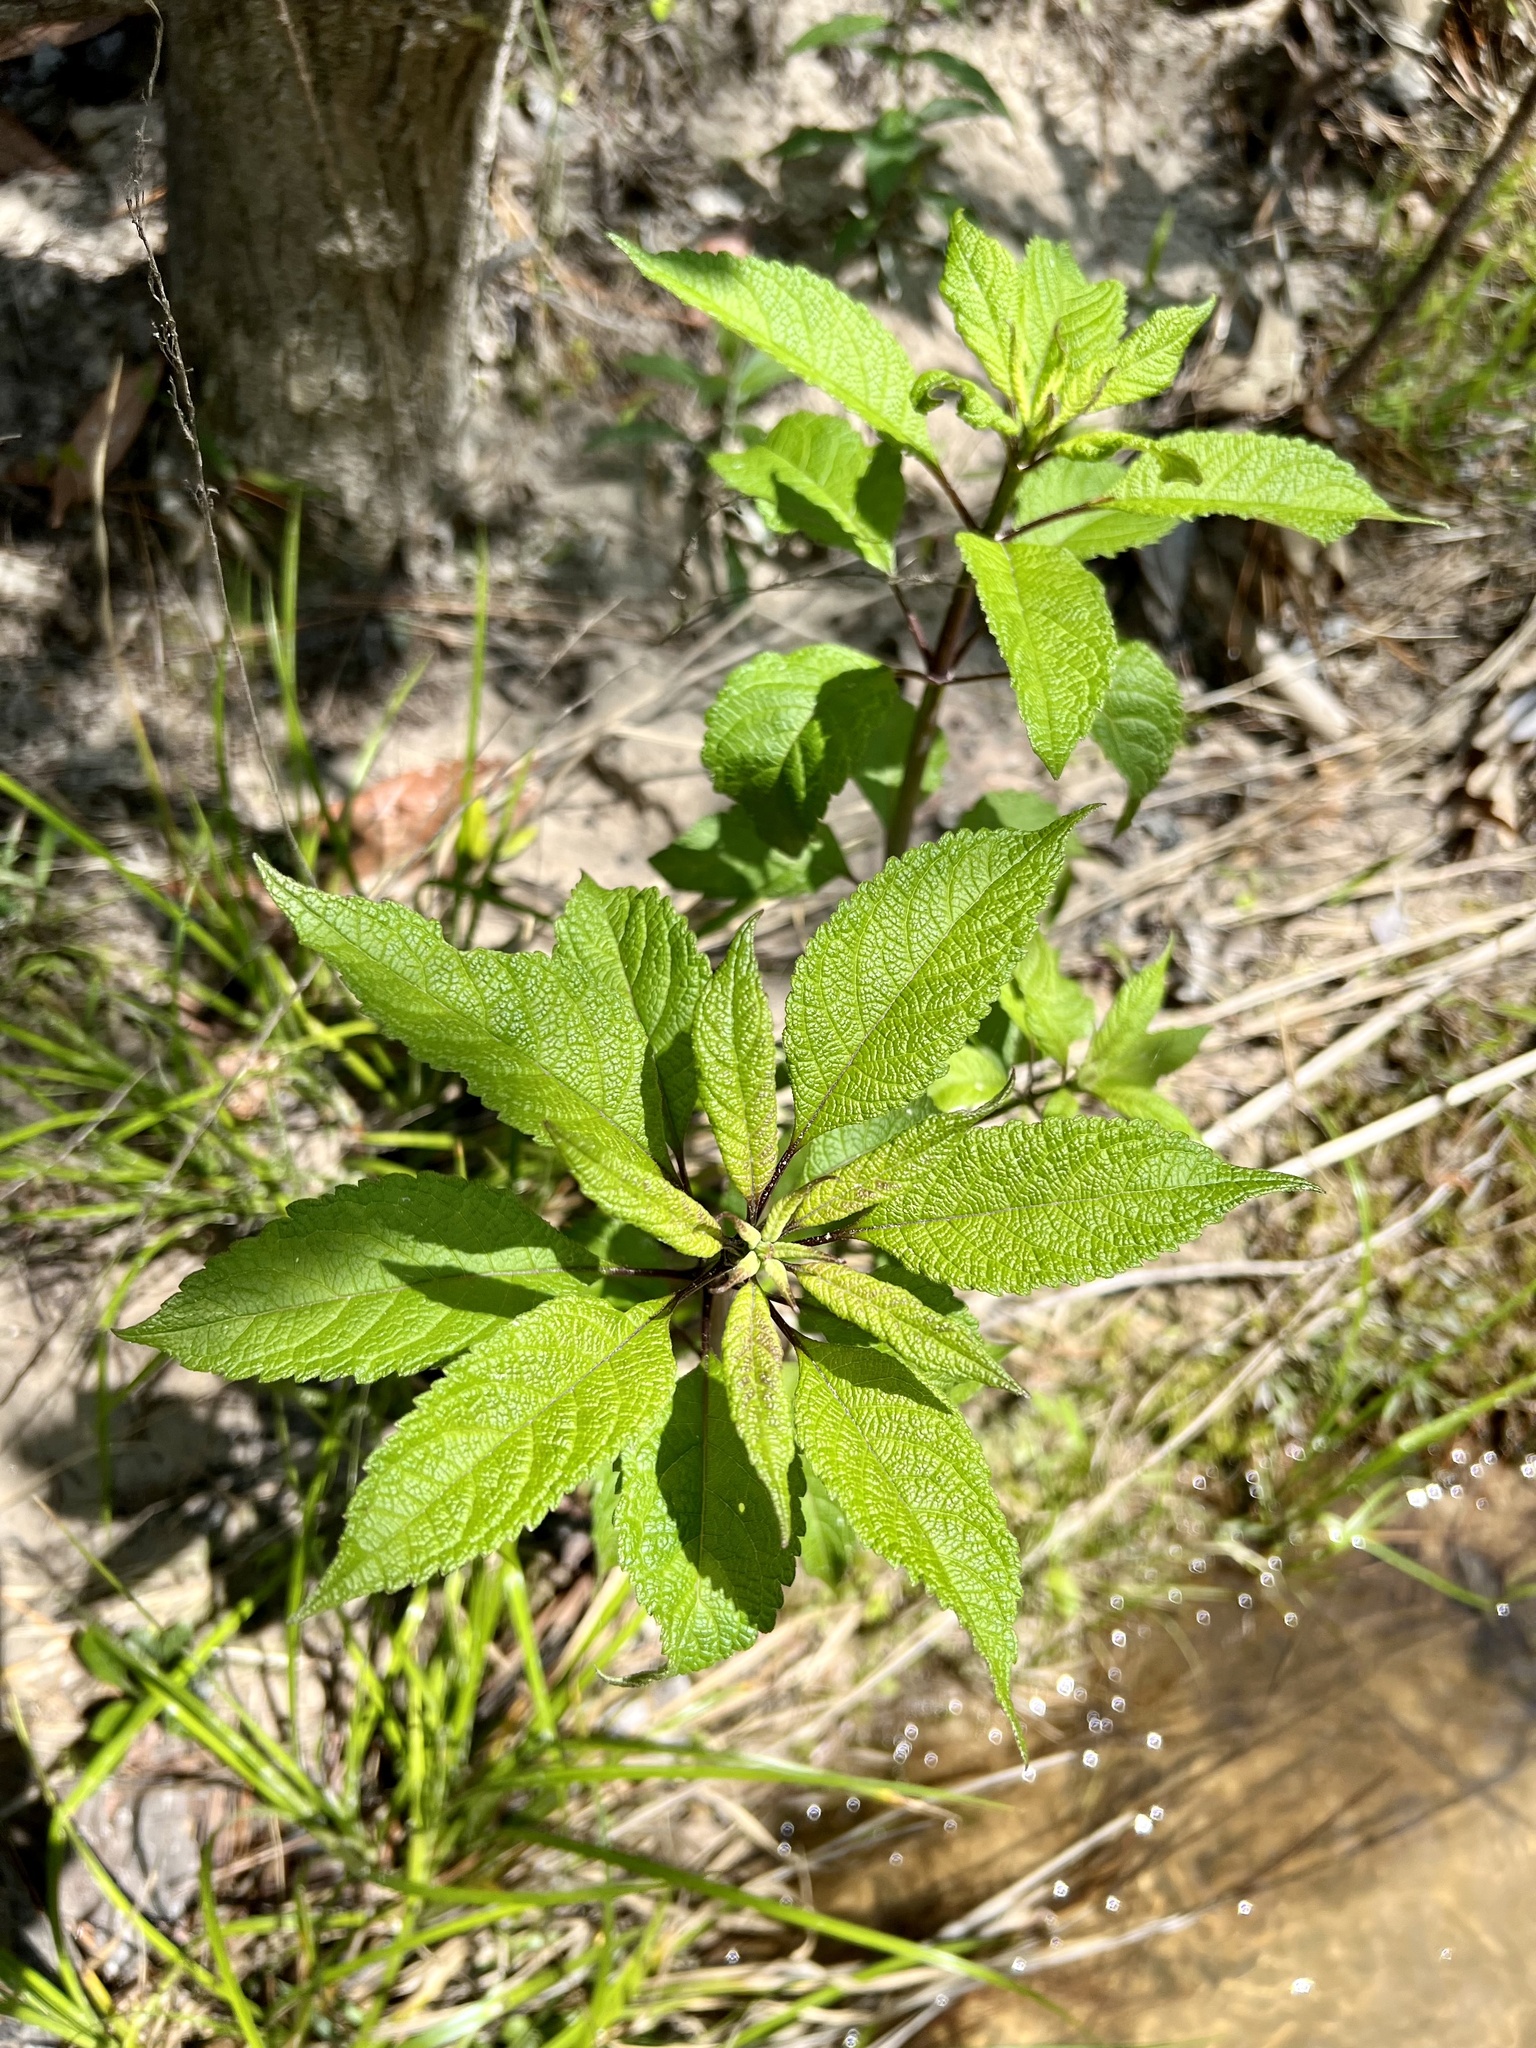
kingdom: Plantae
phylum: Tracheophyta
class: Magnoliopsida
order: Asterales
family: Asteraceae
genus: Eutrochium
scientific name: Eutrochium fistulosum
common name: Trumpetweed
